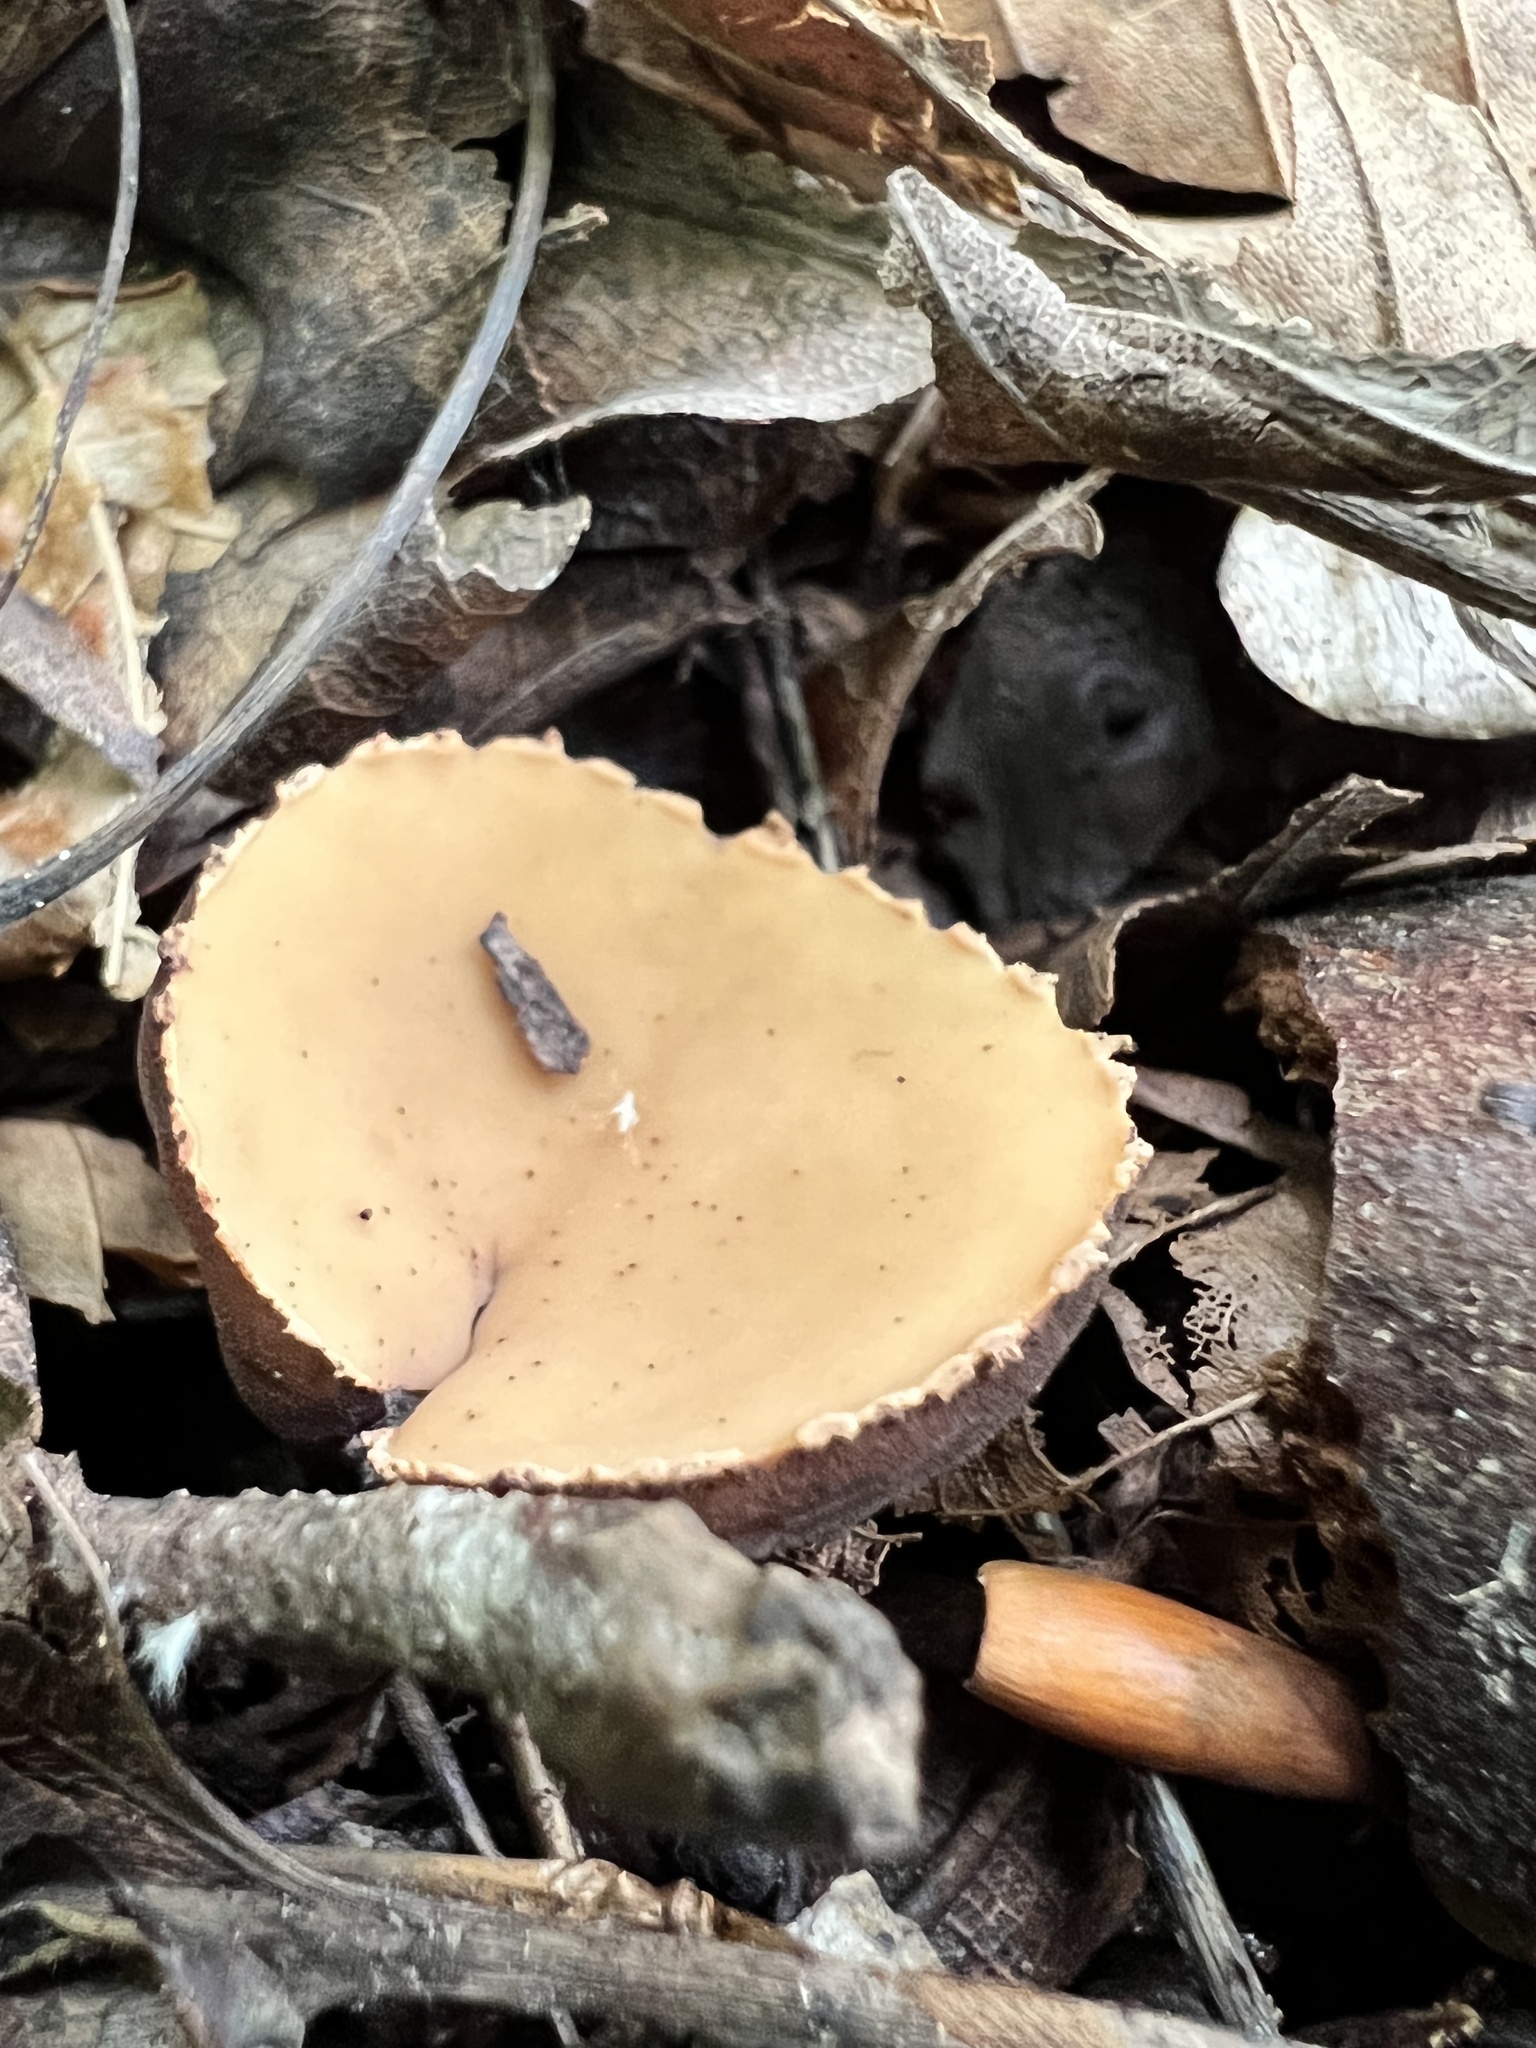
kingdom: Fungi
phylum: Ascomycota
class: Pezizomycetes
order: Pezizales
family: Sarcosomataceae
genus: Galiella
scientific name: Galiella rufa
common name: Hairy rubber cup
